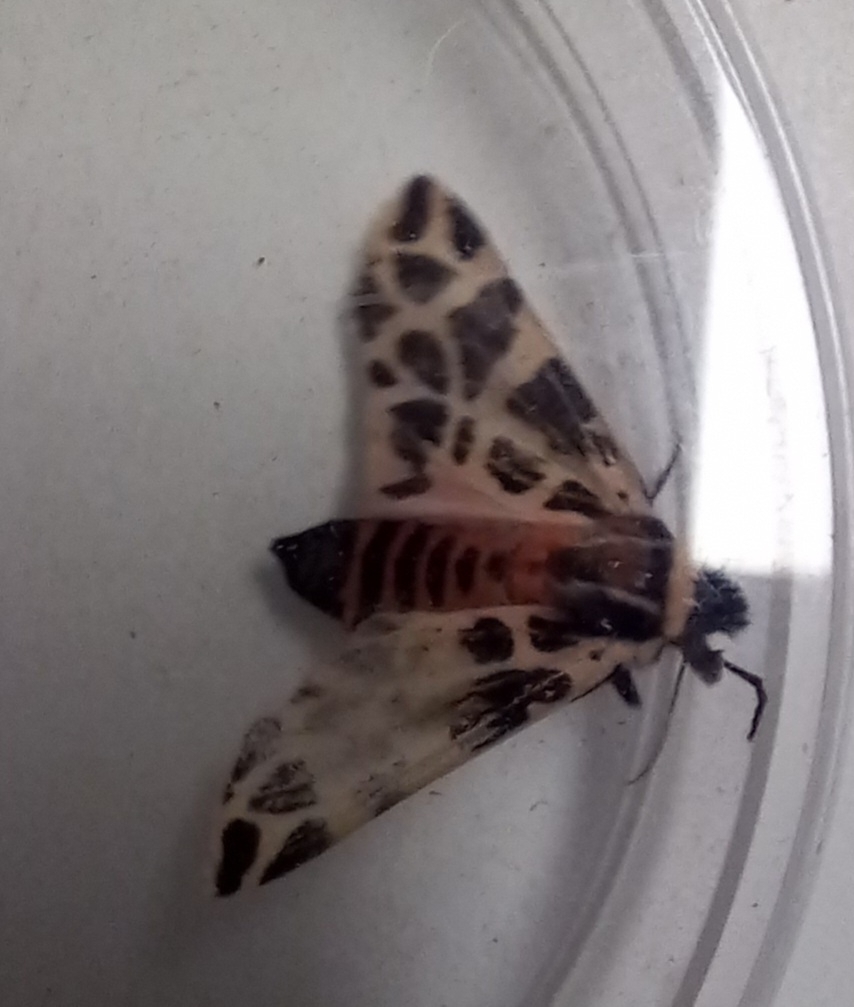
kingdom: Animalia
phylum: Arthropoda
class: Insecta
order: Lepidoptera
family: Erebidae
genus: Cymbalophora
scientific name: Cymbalophora pudica
